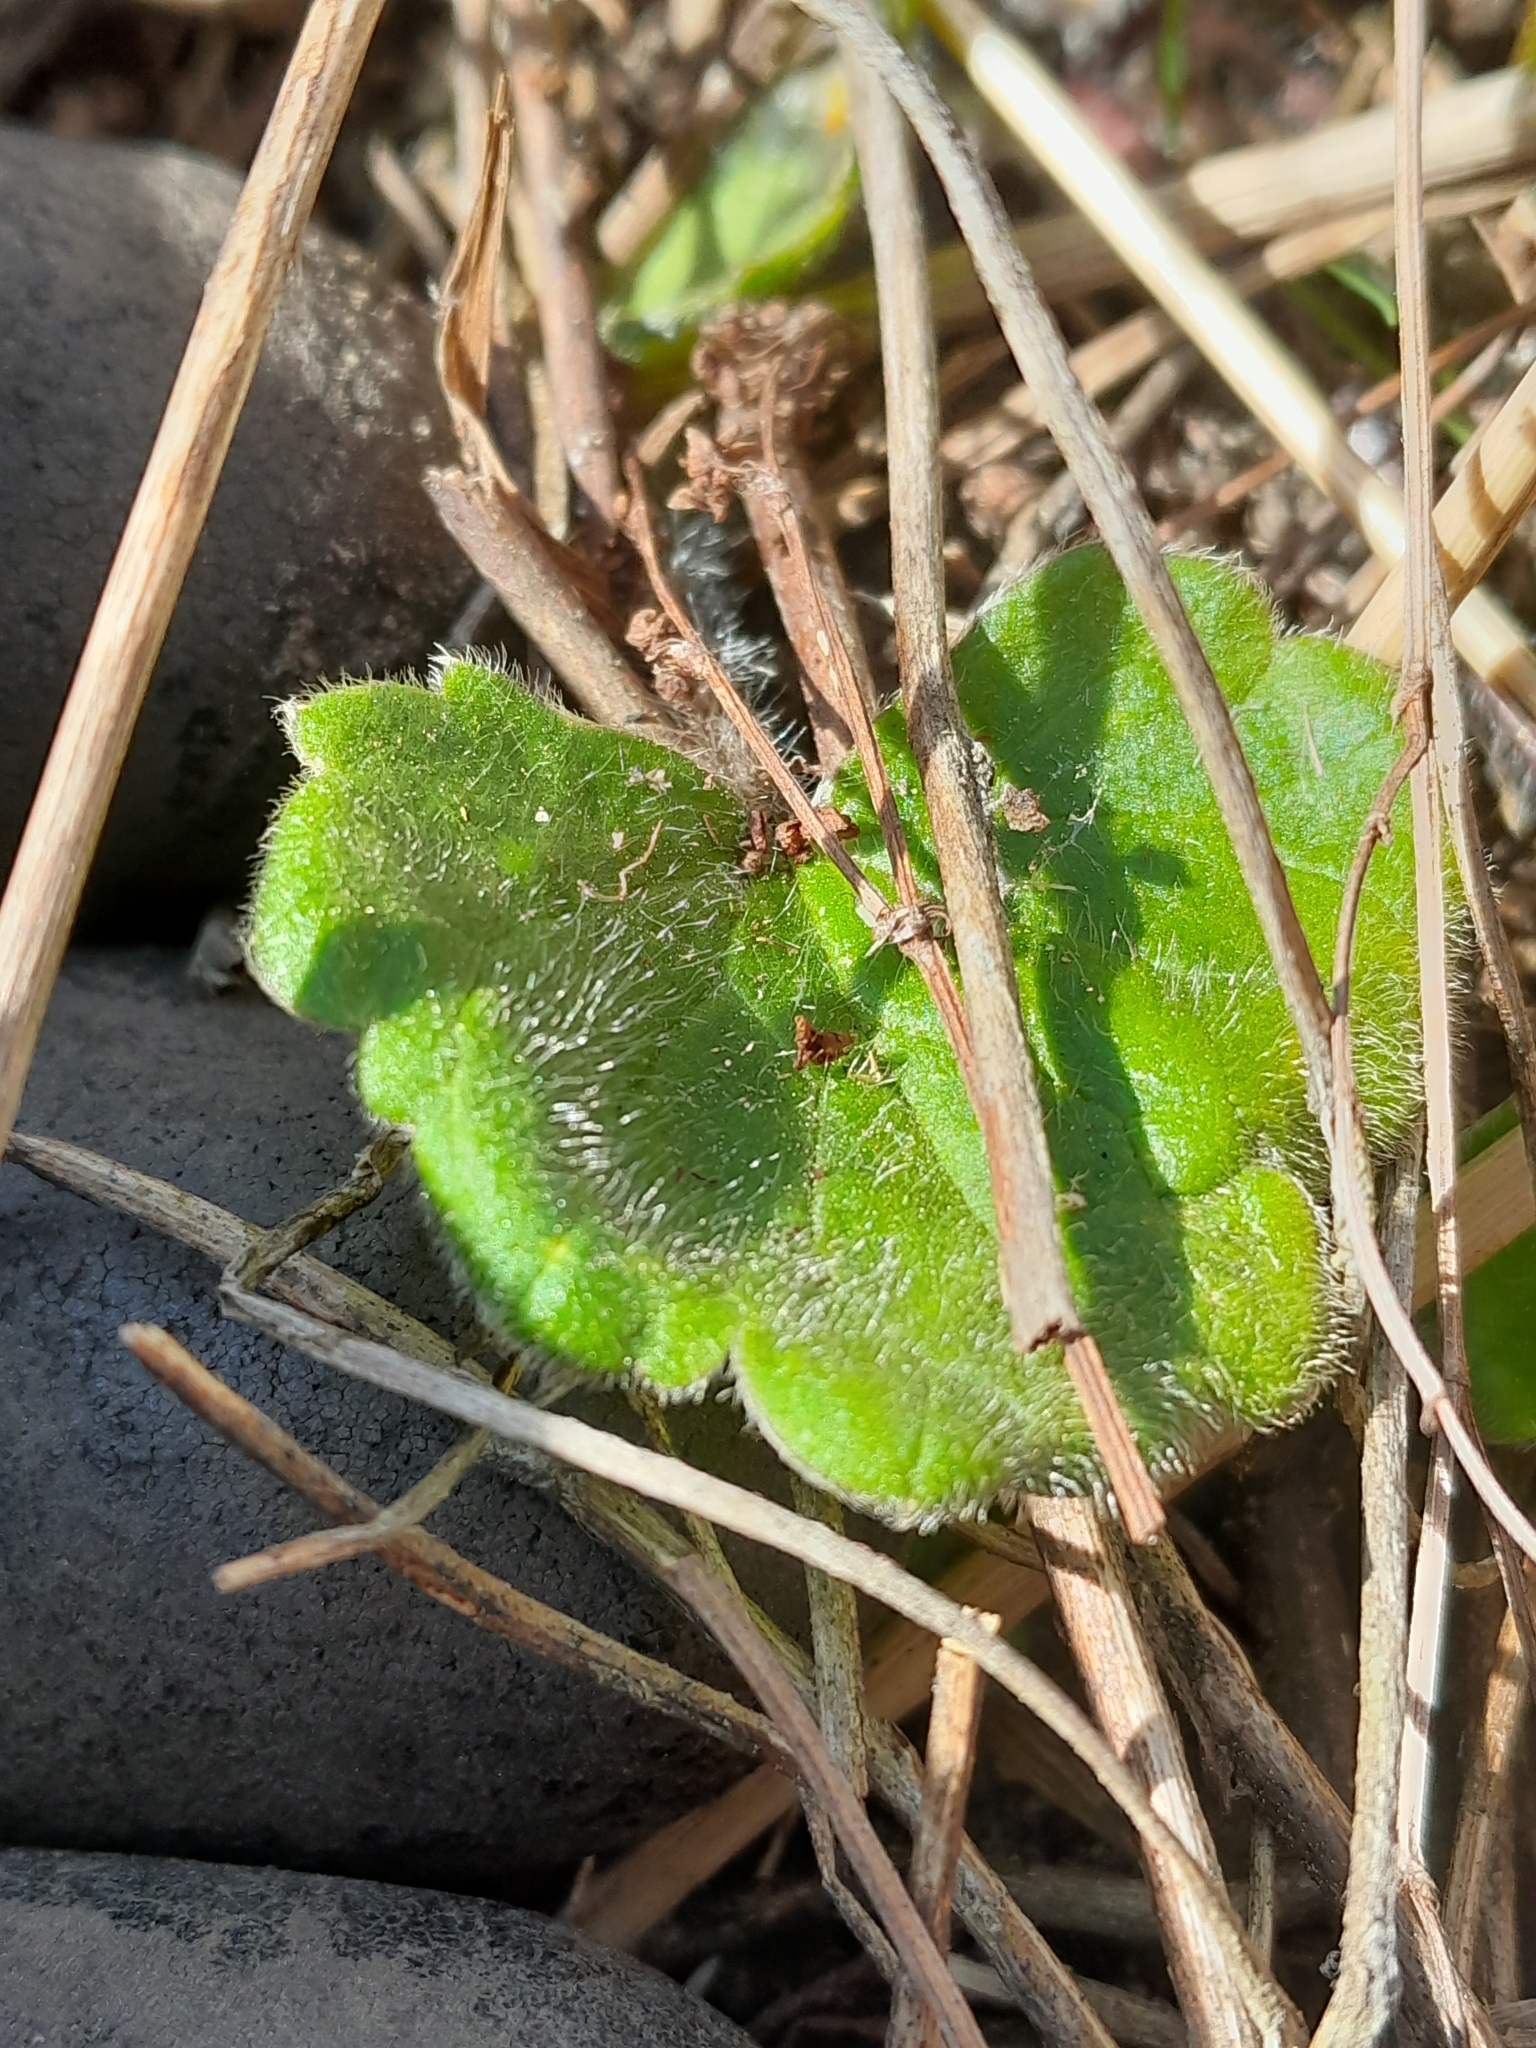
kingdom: Plantae
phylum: Tracheophyta
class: Magnoliopsida
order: Ranunculales
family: Ranunculaceae
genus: Ranunculus
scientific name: Ranunculus multiscapus
